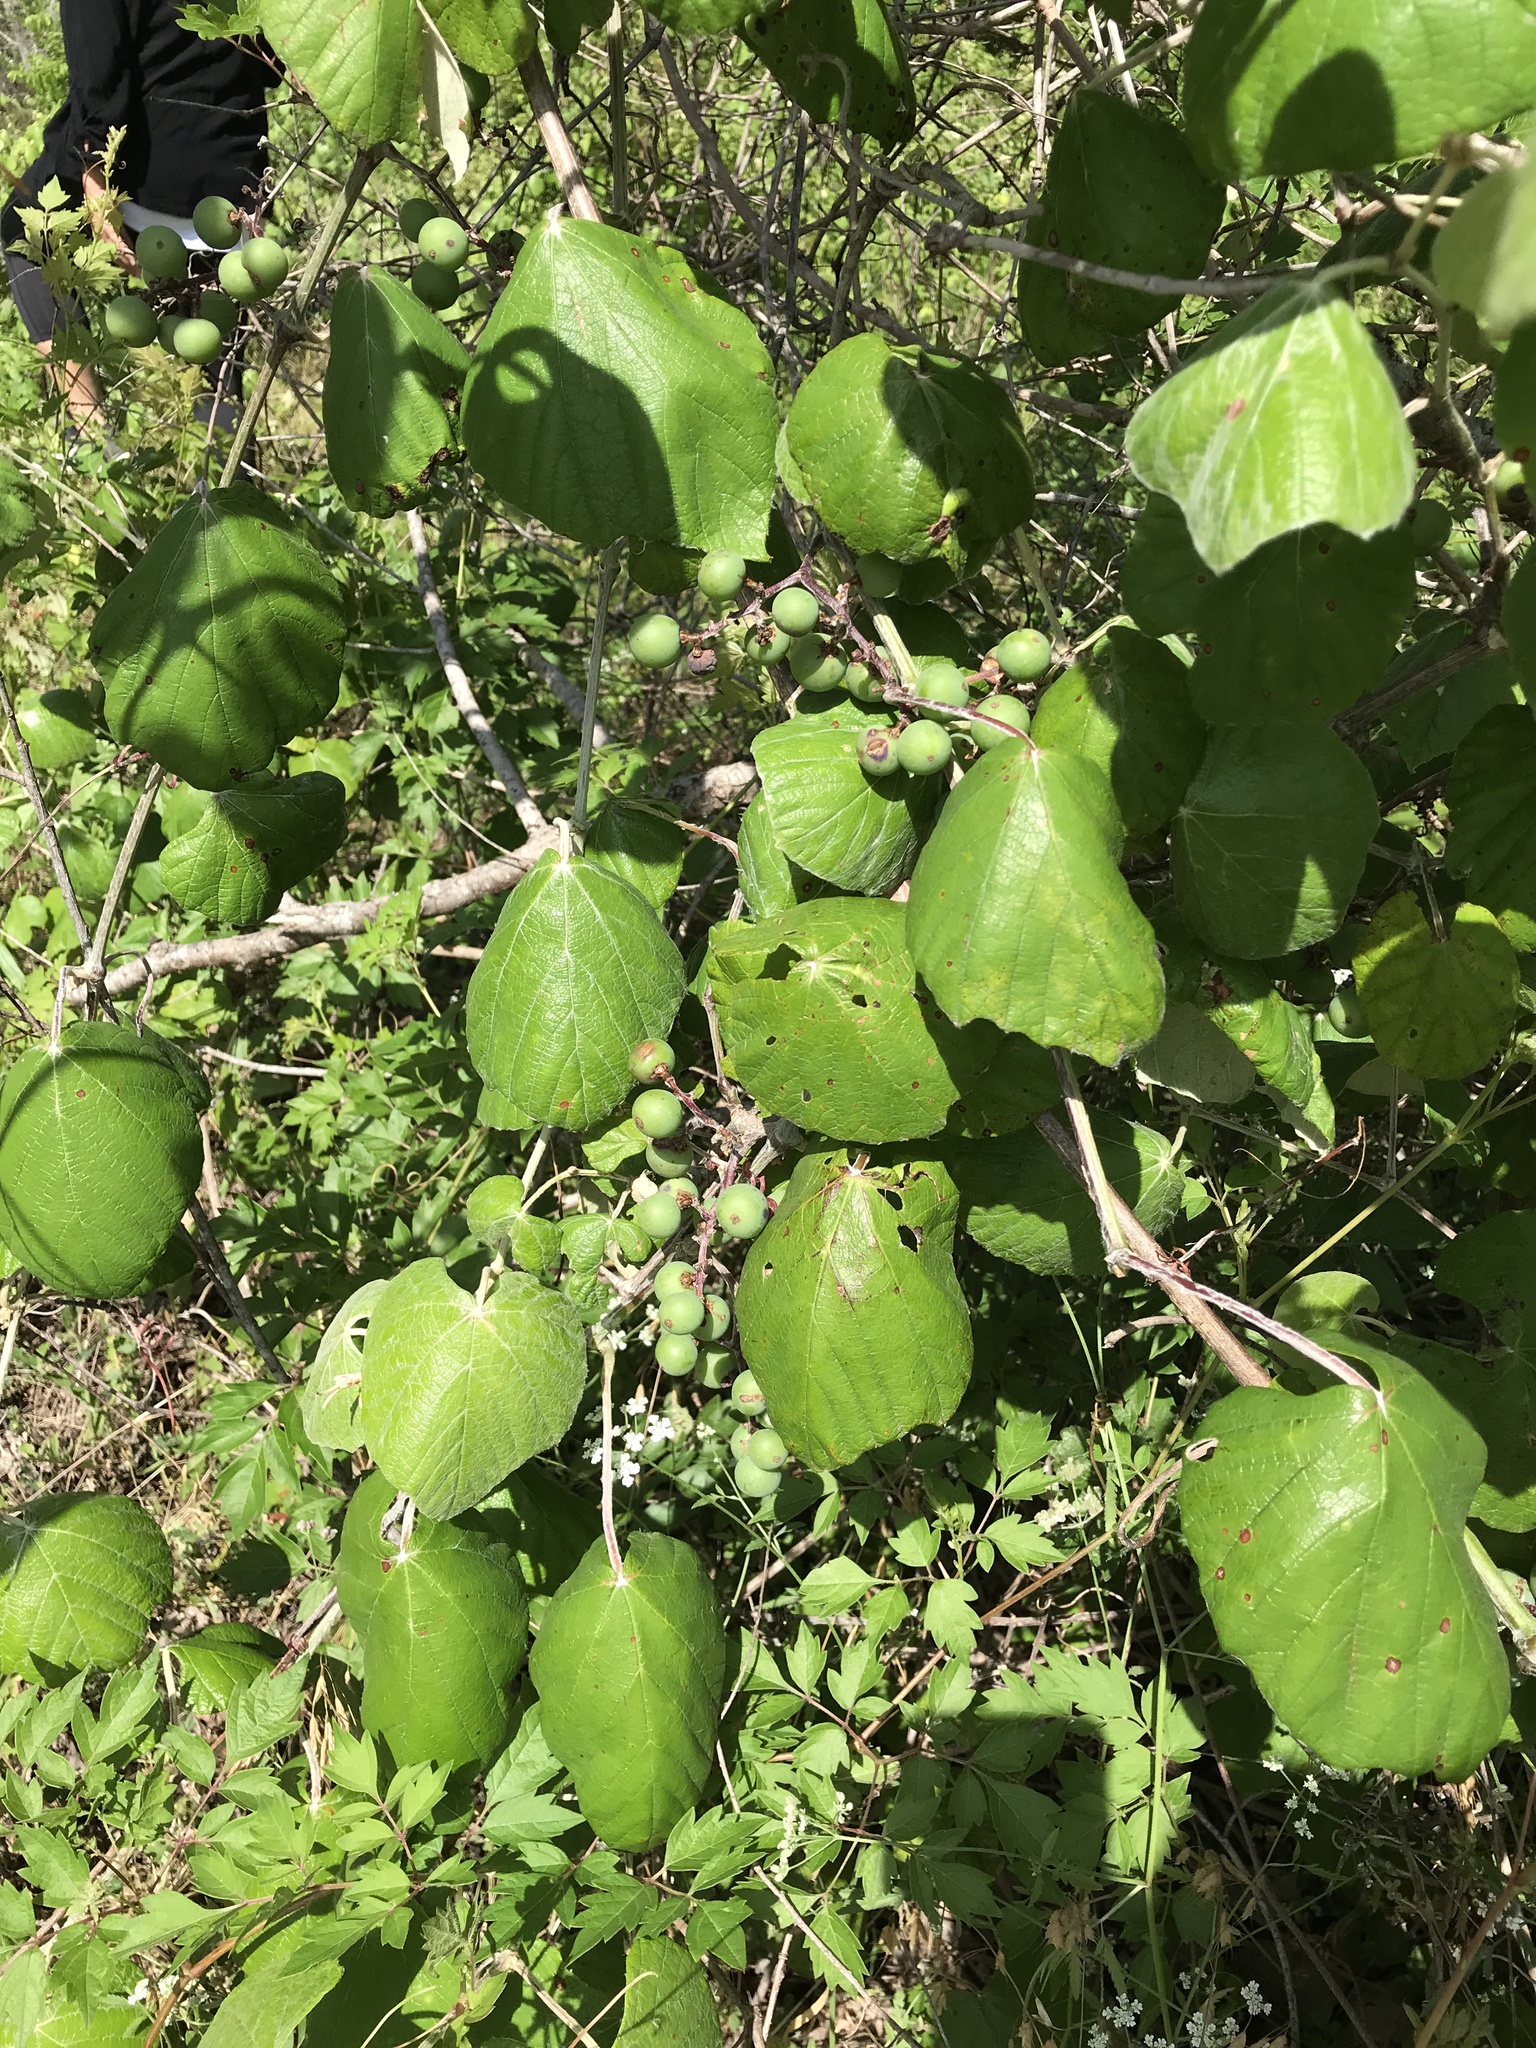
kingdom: Plantae
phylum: Tracheophyta
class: Magnoliopsida
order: Vitales
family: Vitaceae
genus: Vitis
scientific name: Vitis mustangensis
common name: Mustang grape
